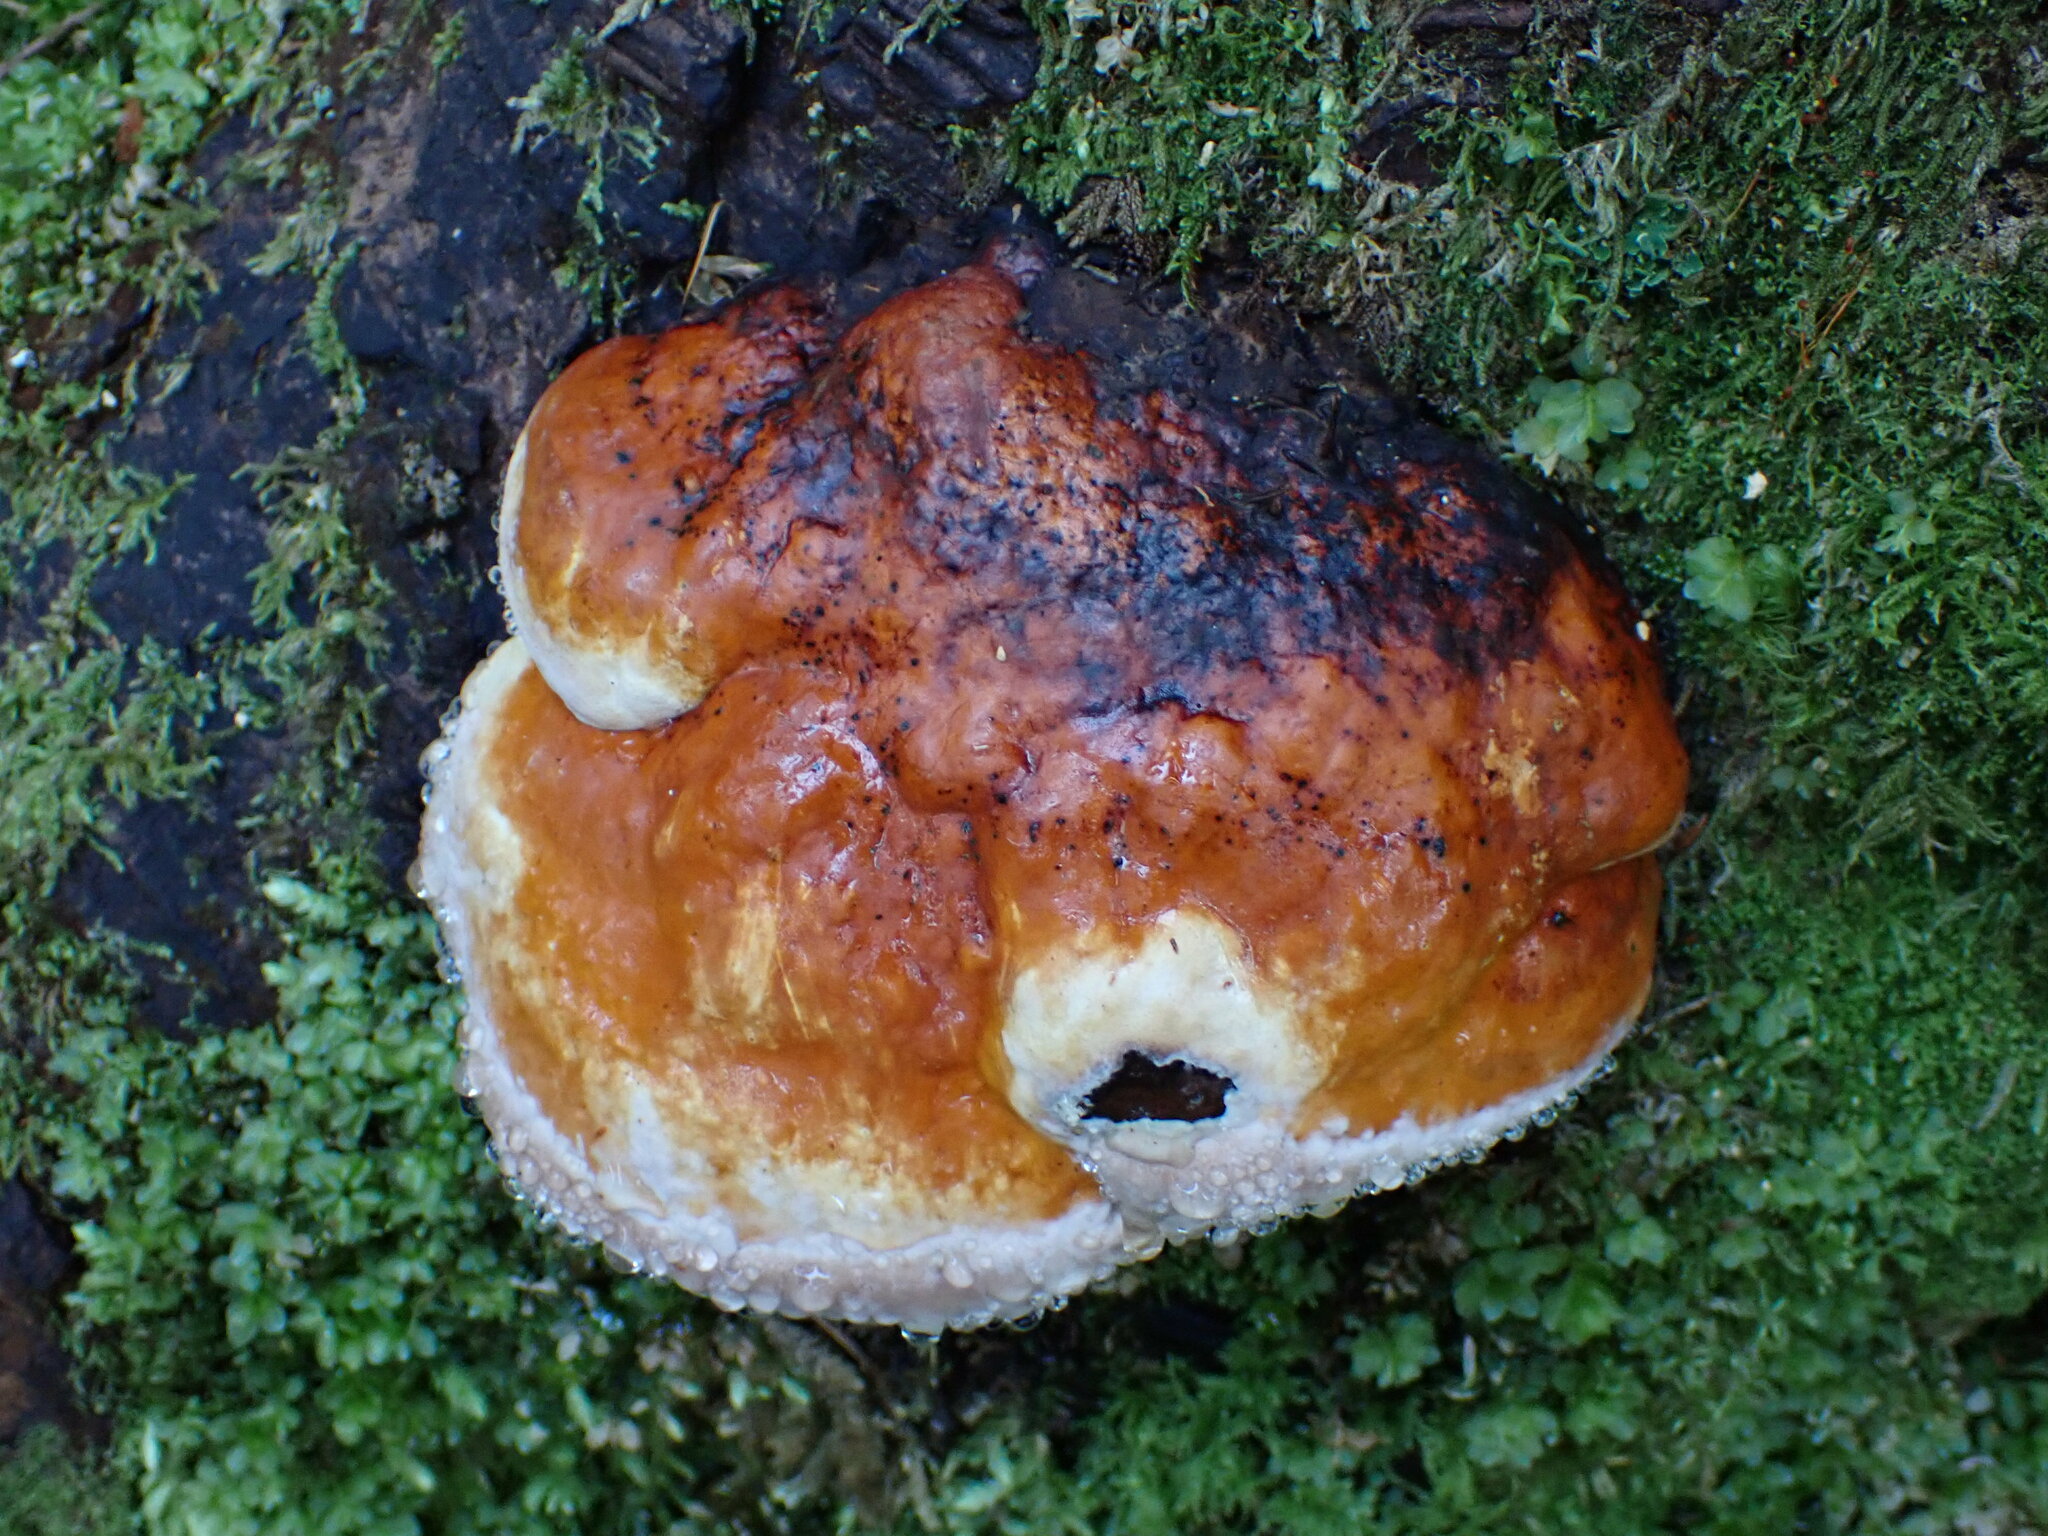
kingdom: Fungi
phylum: Basidiomycota
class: Agaricomycetes
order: Polyporales
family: Fomitopsidaceae
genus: Fomitopsis
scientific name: Fomitopsis mounceae
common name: Northern red belt
